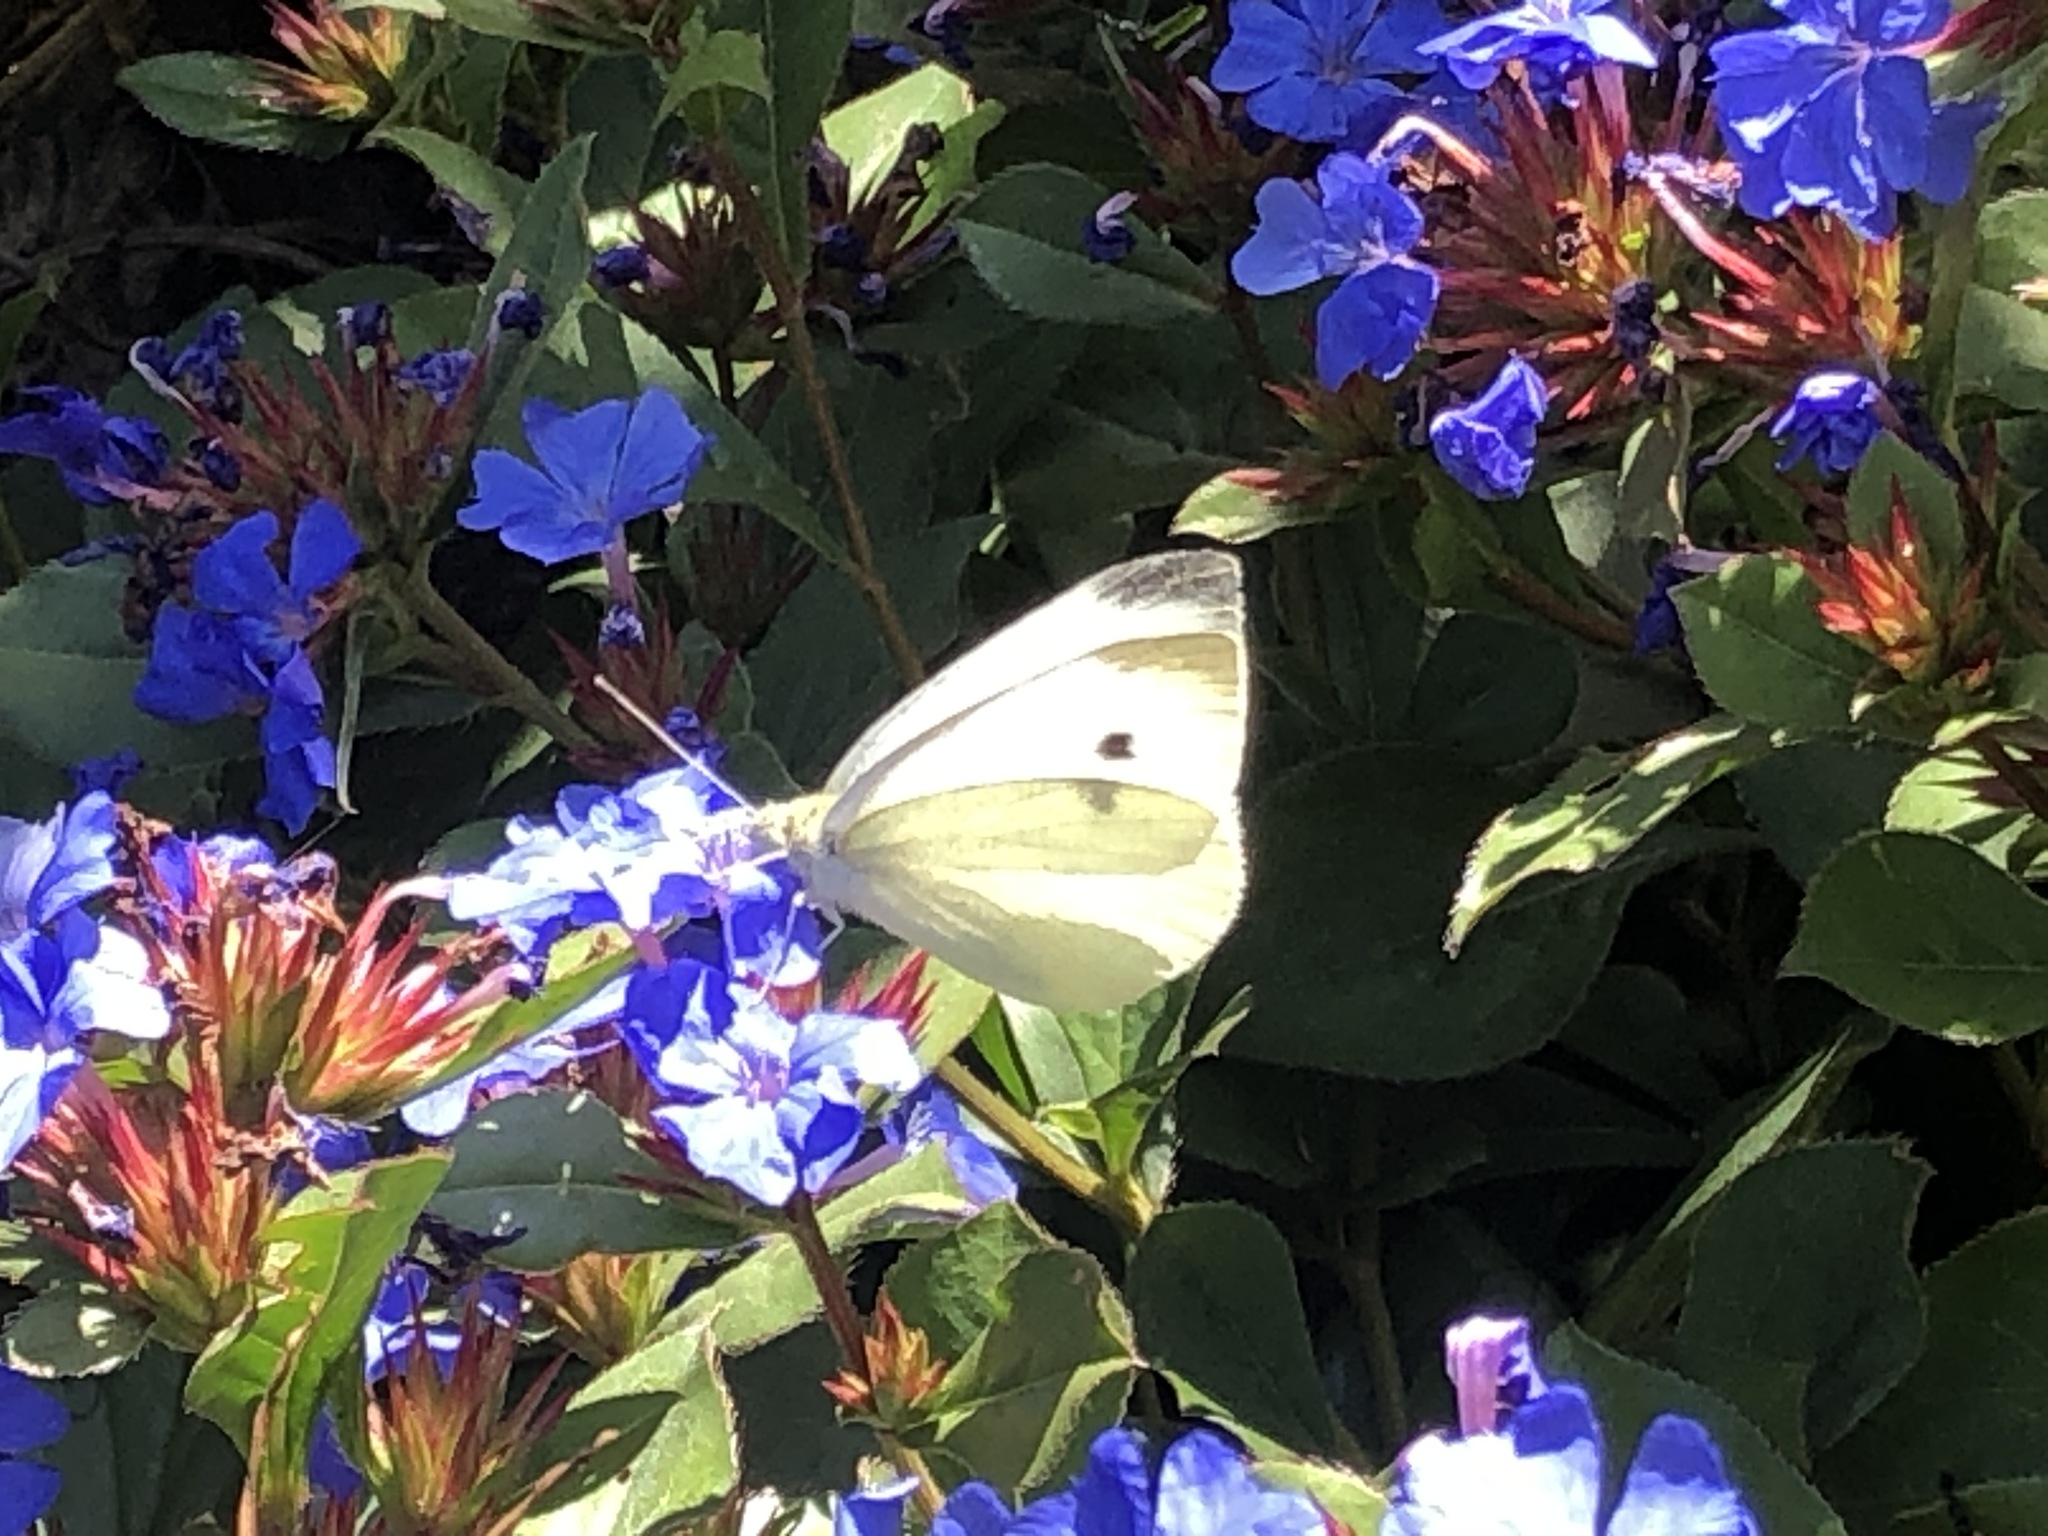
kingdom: Animalia
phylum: Arthropoda
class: Insecta
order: Lepidoptera
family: Pieridae
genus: Pieris
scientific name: Pieris rapae
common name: Small white
